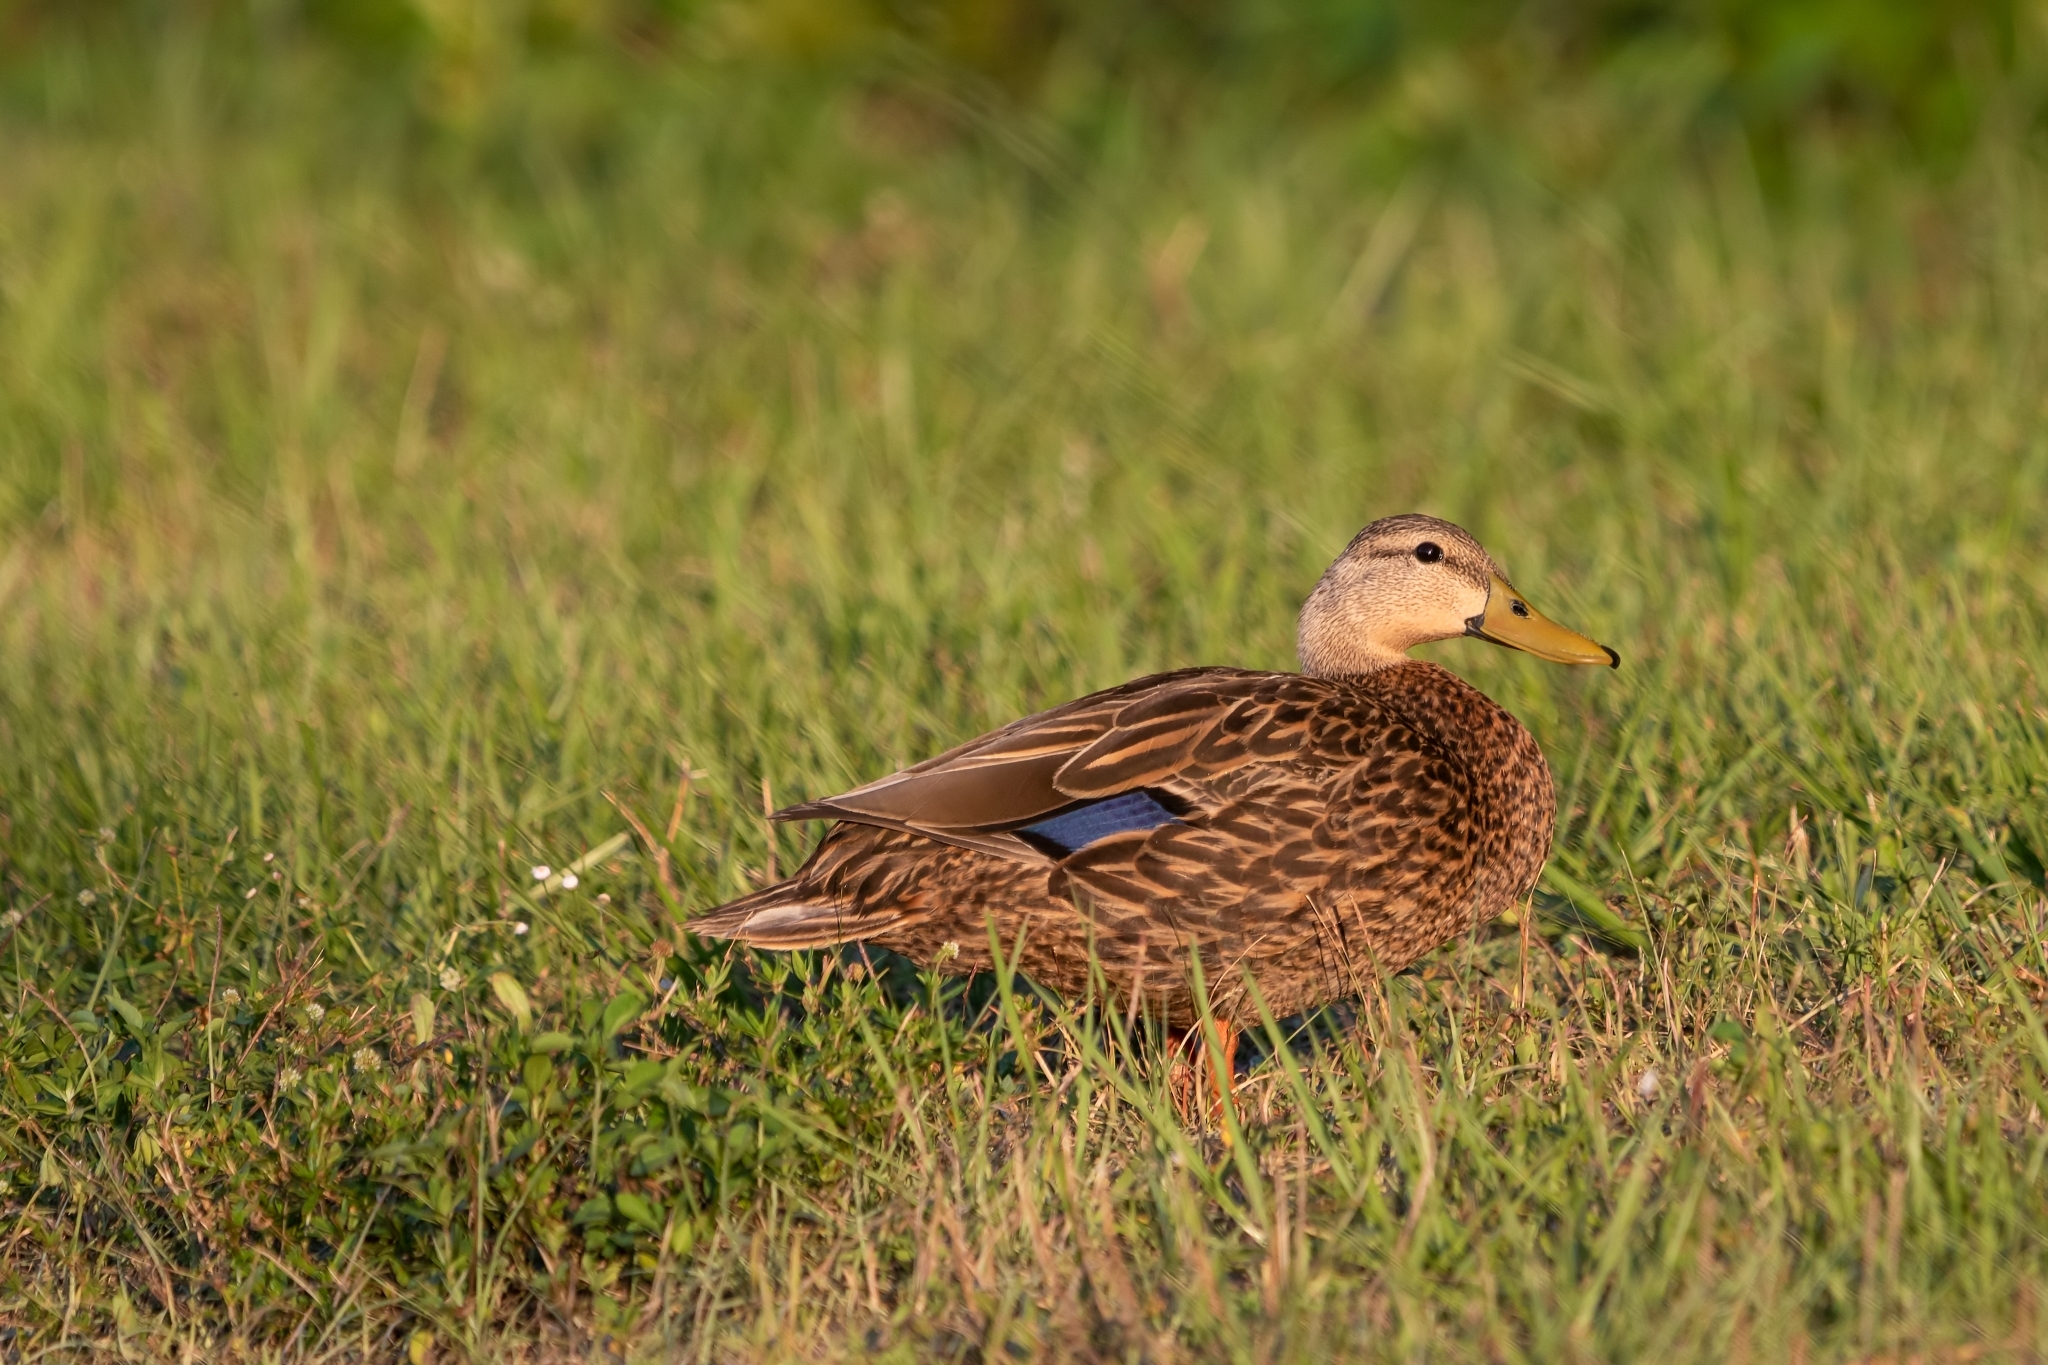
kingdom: Animalia
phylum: Chordata
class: Aves
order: Anseriformes
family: Anatidae
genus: Anas
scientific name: Anas
